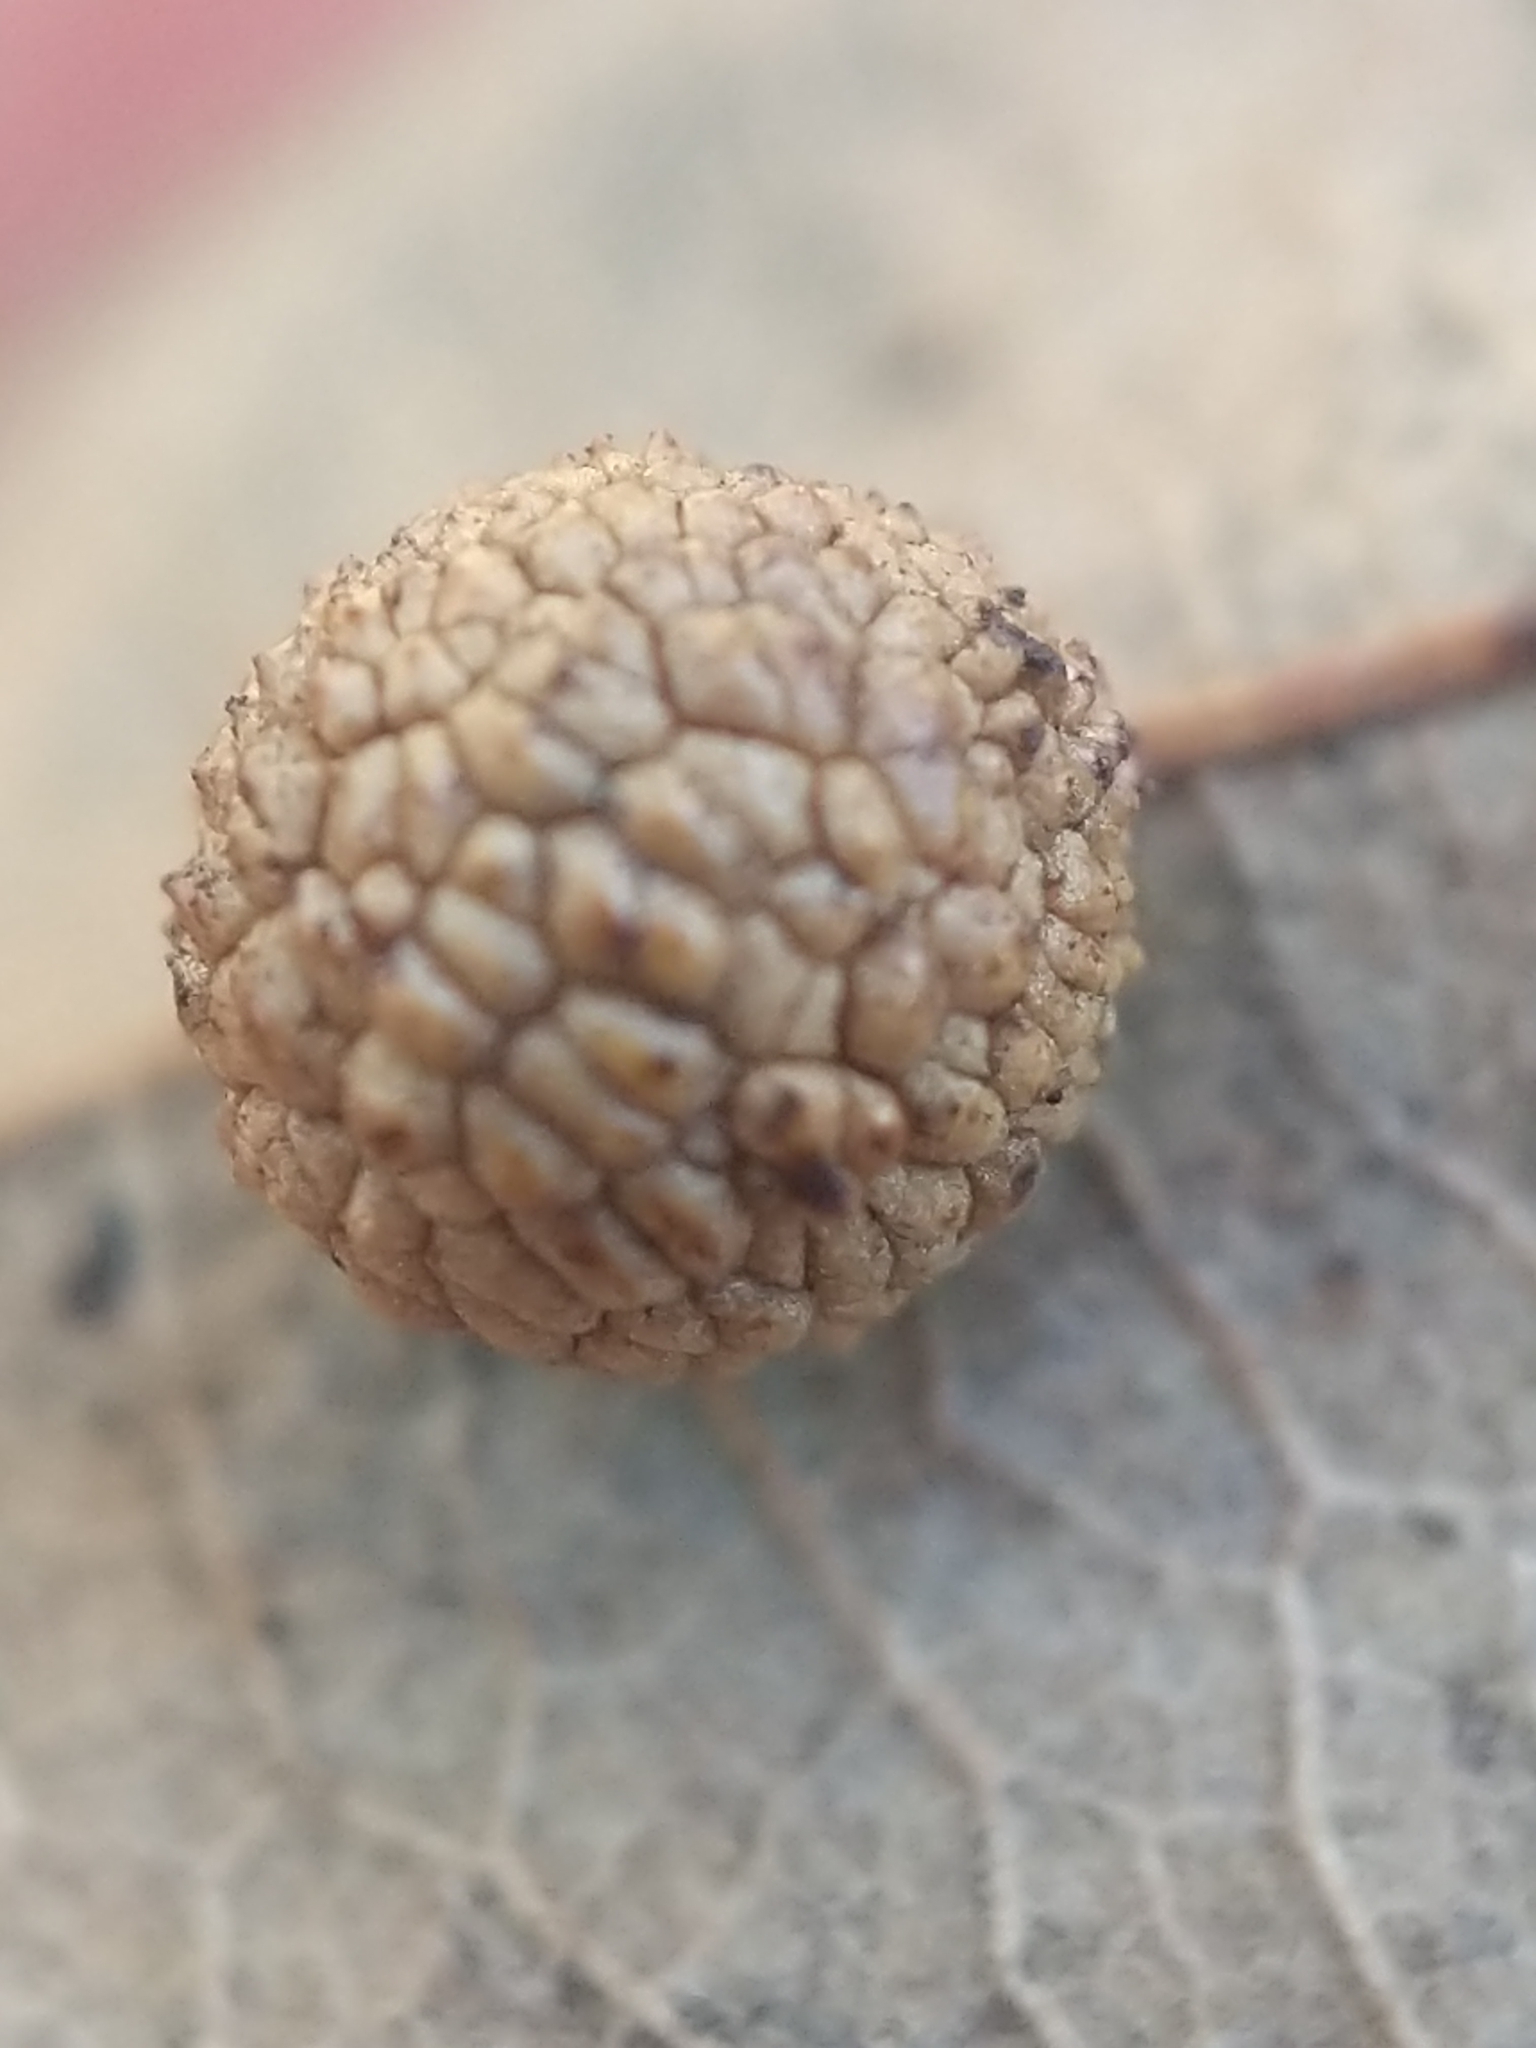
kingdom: Animalia
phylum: Arthropoda
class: Insecta
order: Hymenoptera
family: Cynipidae
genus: Acraspis
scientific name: Acraspis quercushirta
